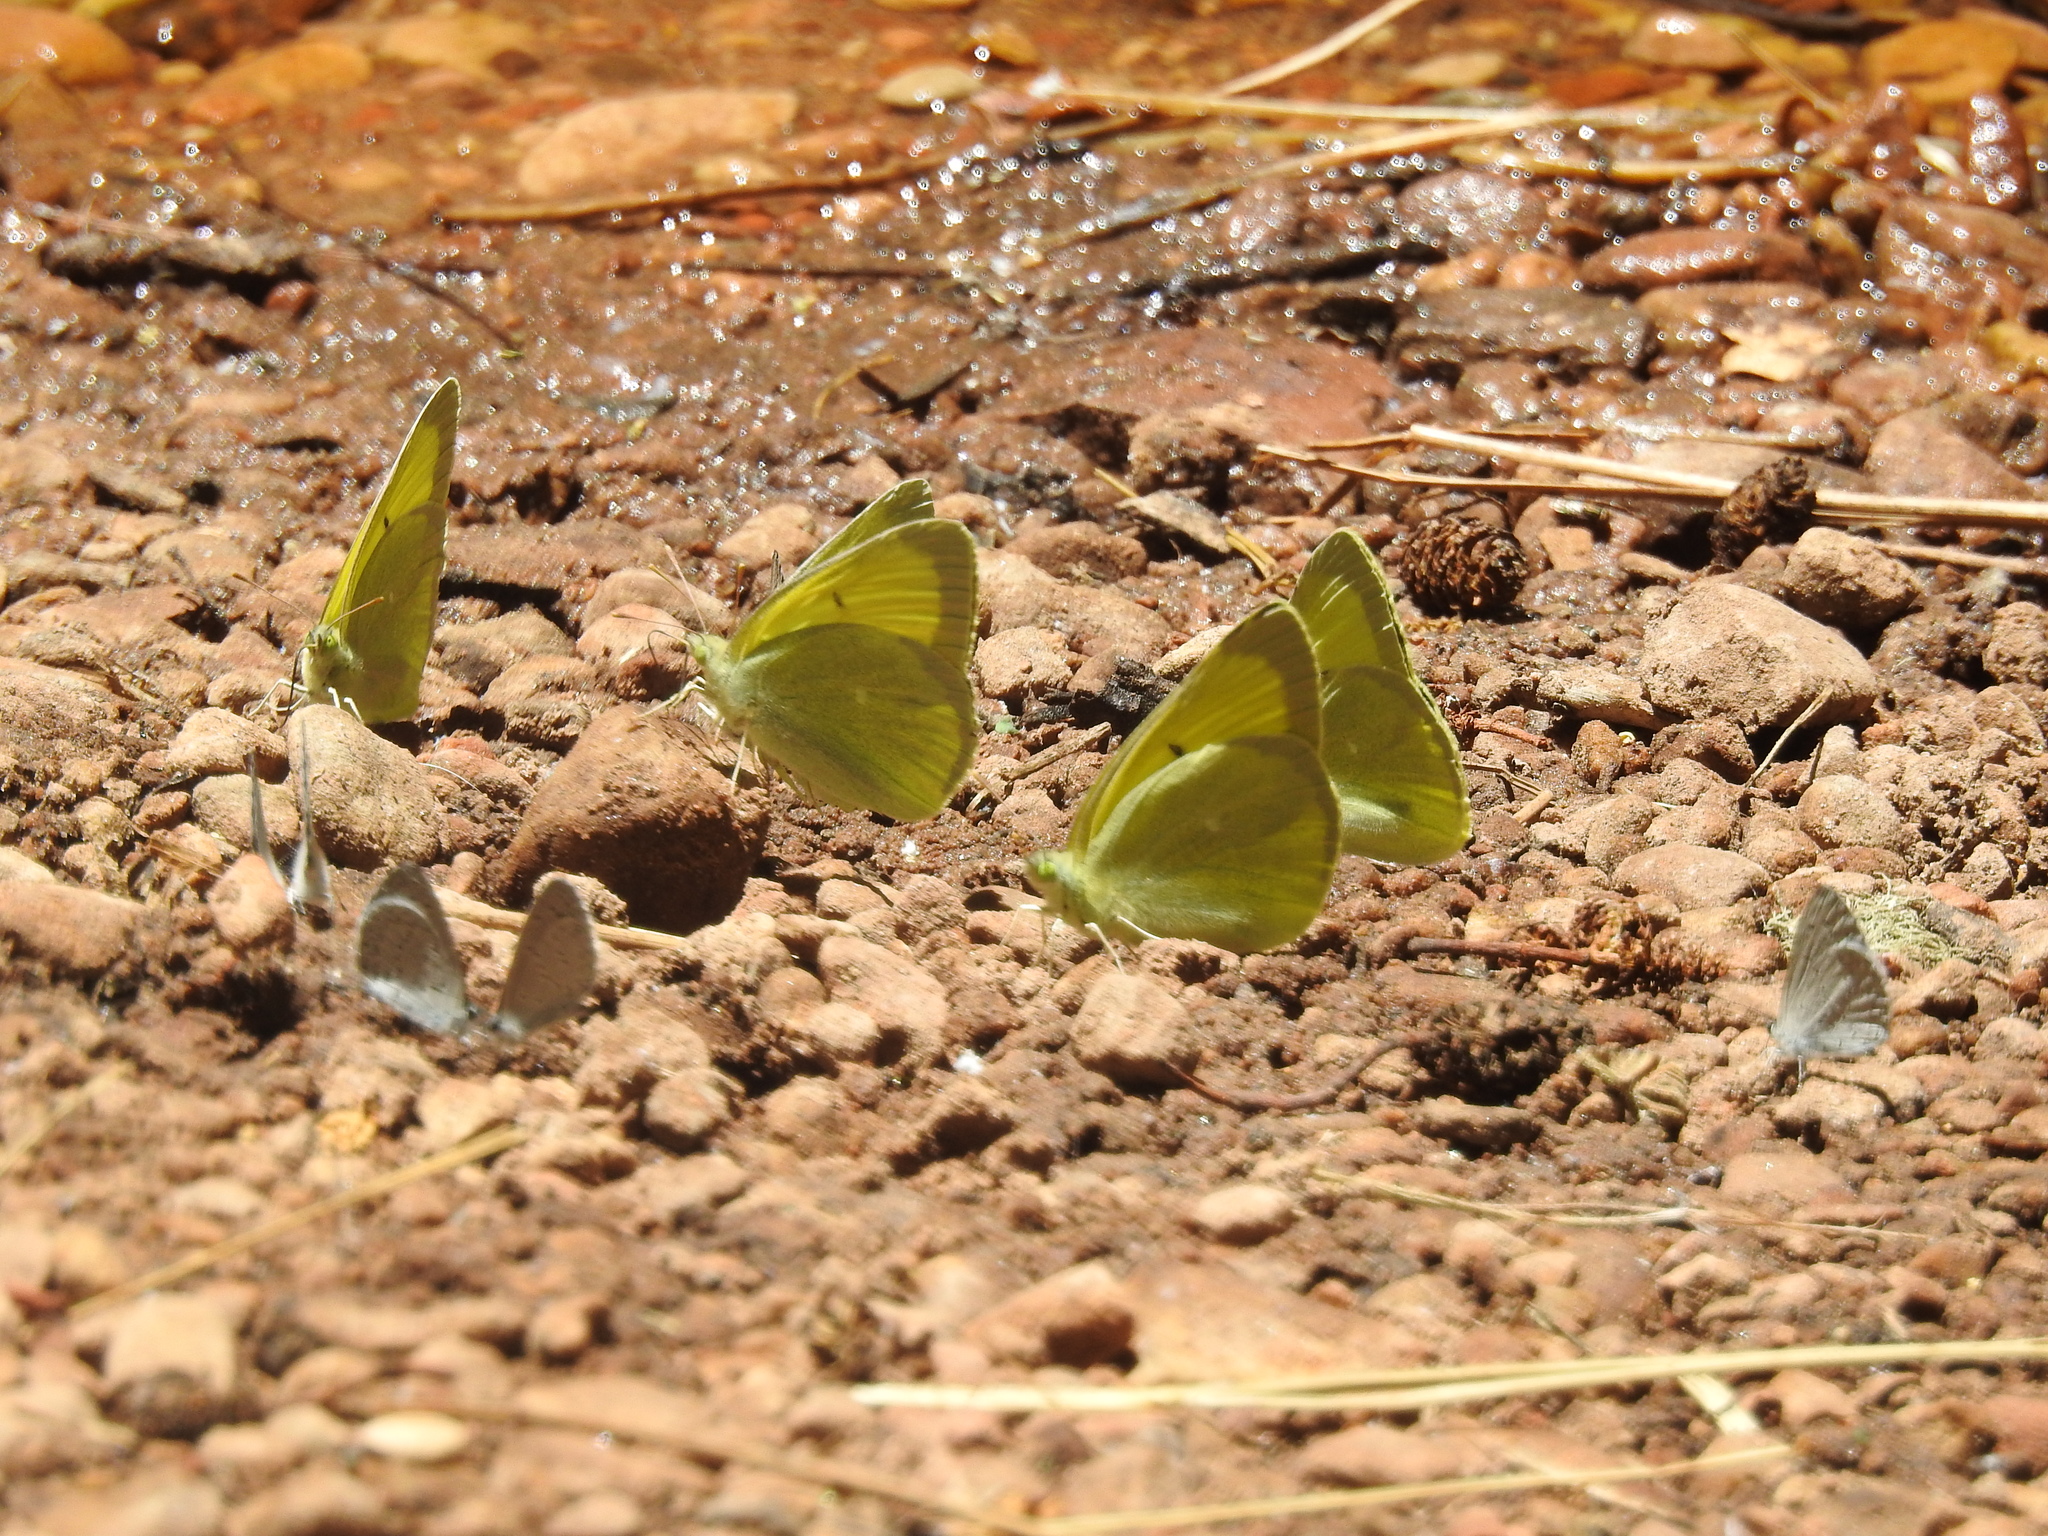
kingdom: Animalia
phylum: Arthropoda
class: Insecta
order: Lepidoptera
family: Pieridae
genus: Colias
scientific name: Colias alexandra
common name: Alexandra sulphur
